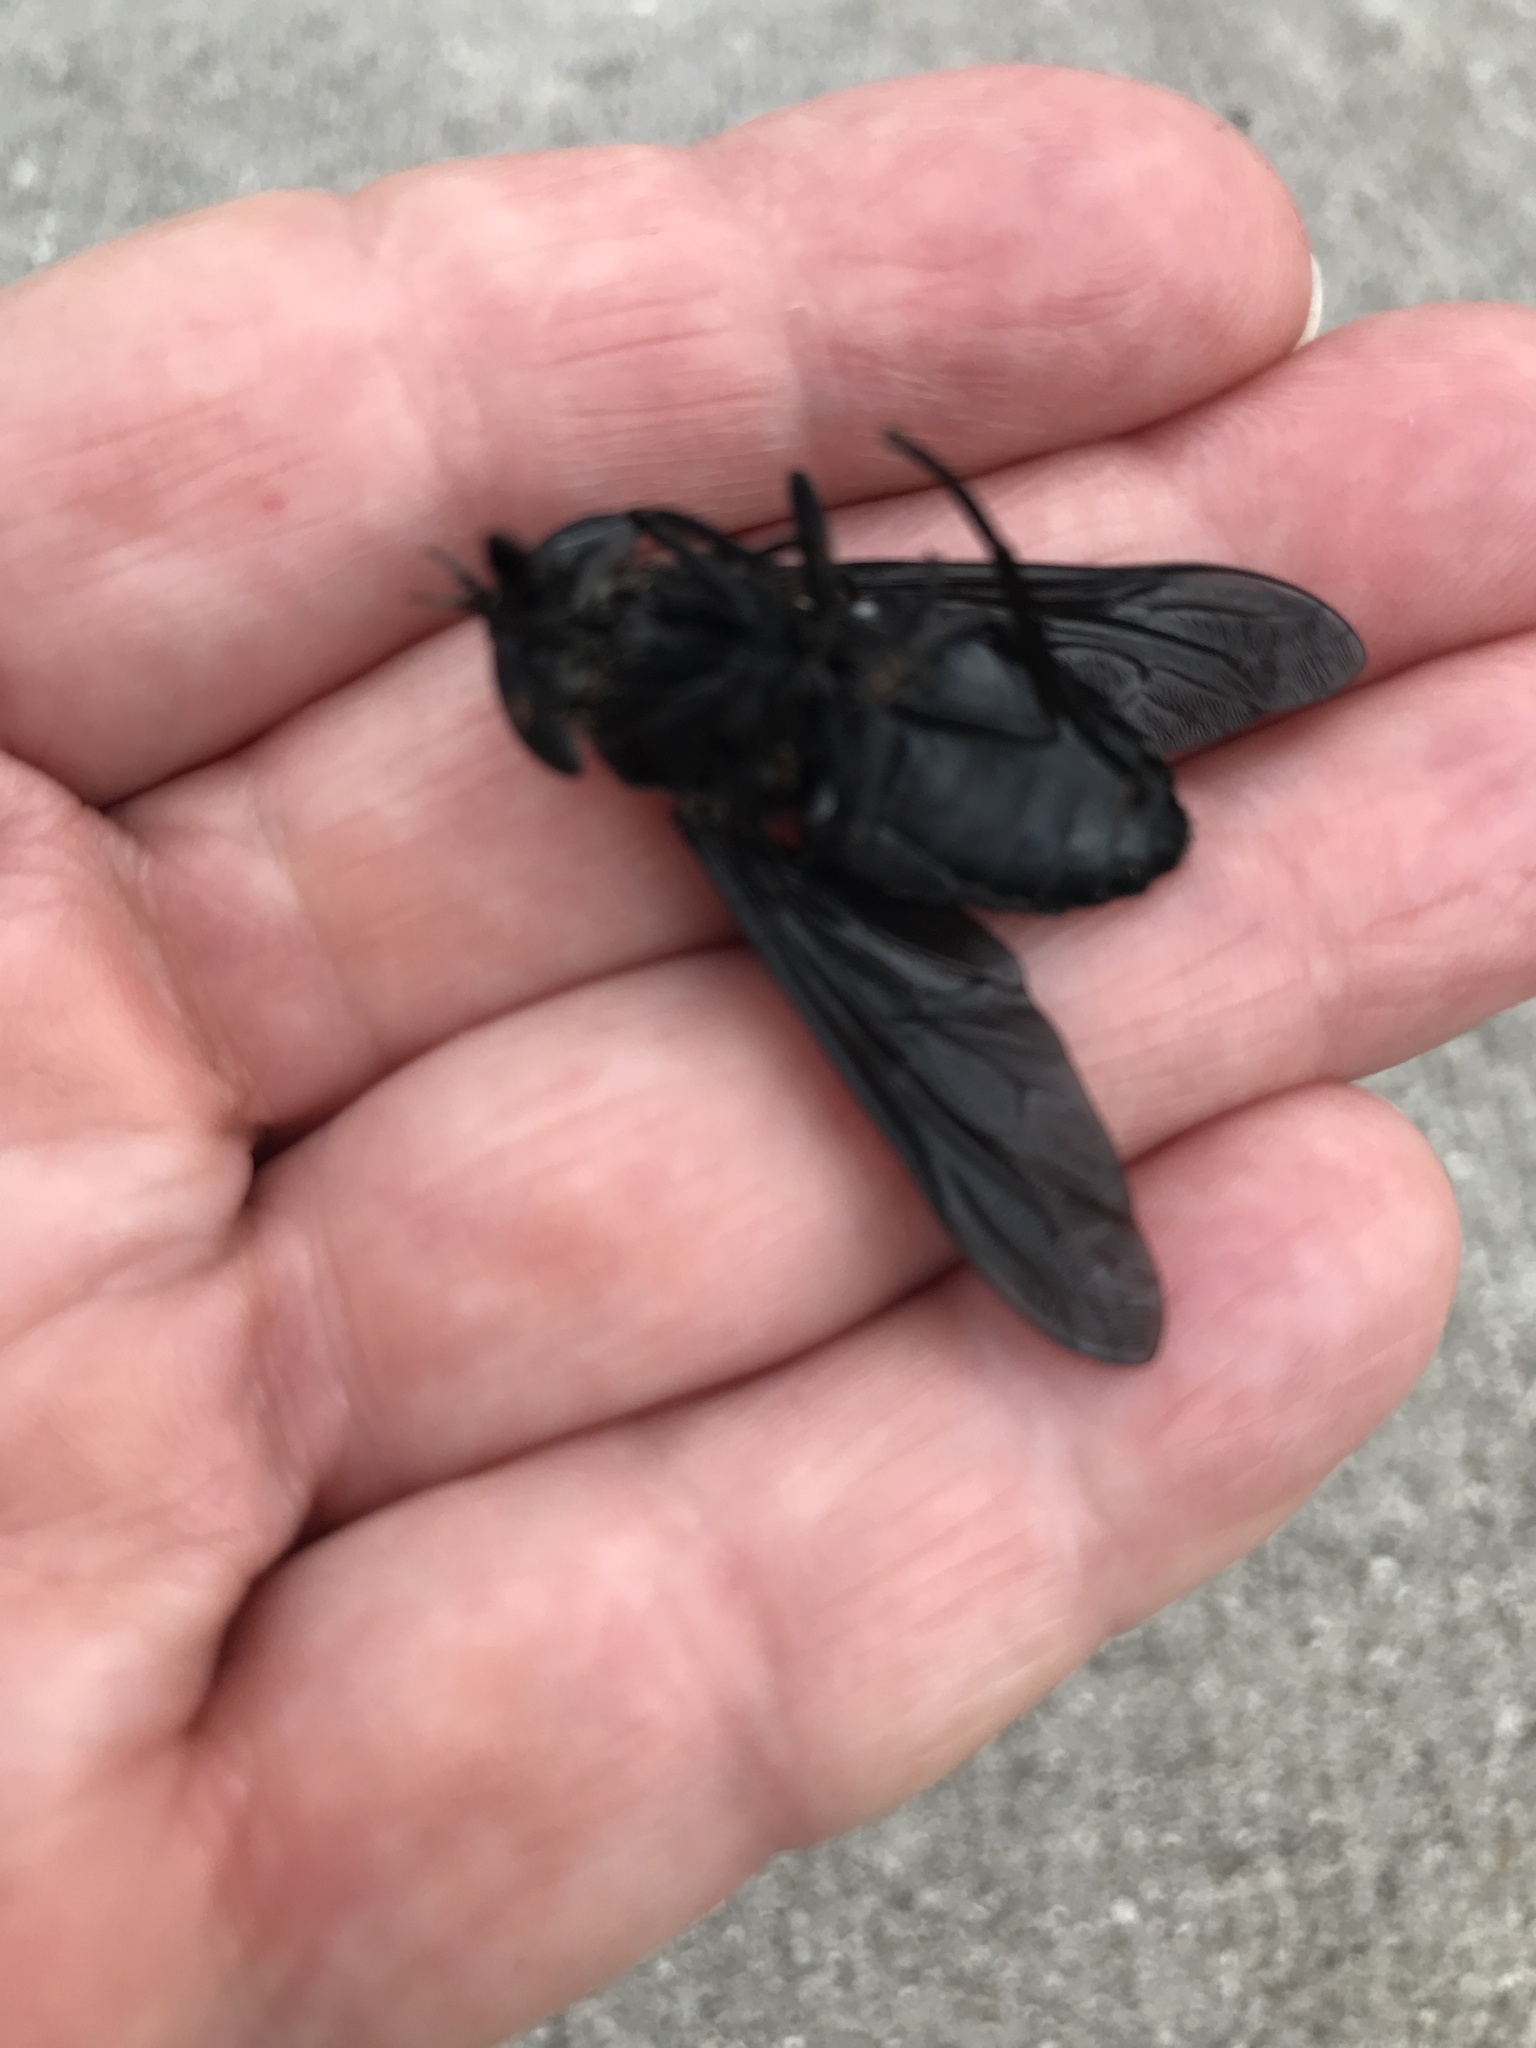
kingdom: Animalia
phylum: Arthropoda
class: Insecta
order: Diptera
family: Tabanidae
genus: Tabanus
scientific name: Tabanus atratus
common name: Black horse fly
